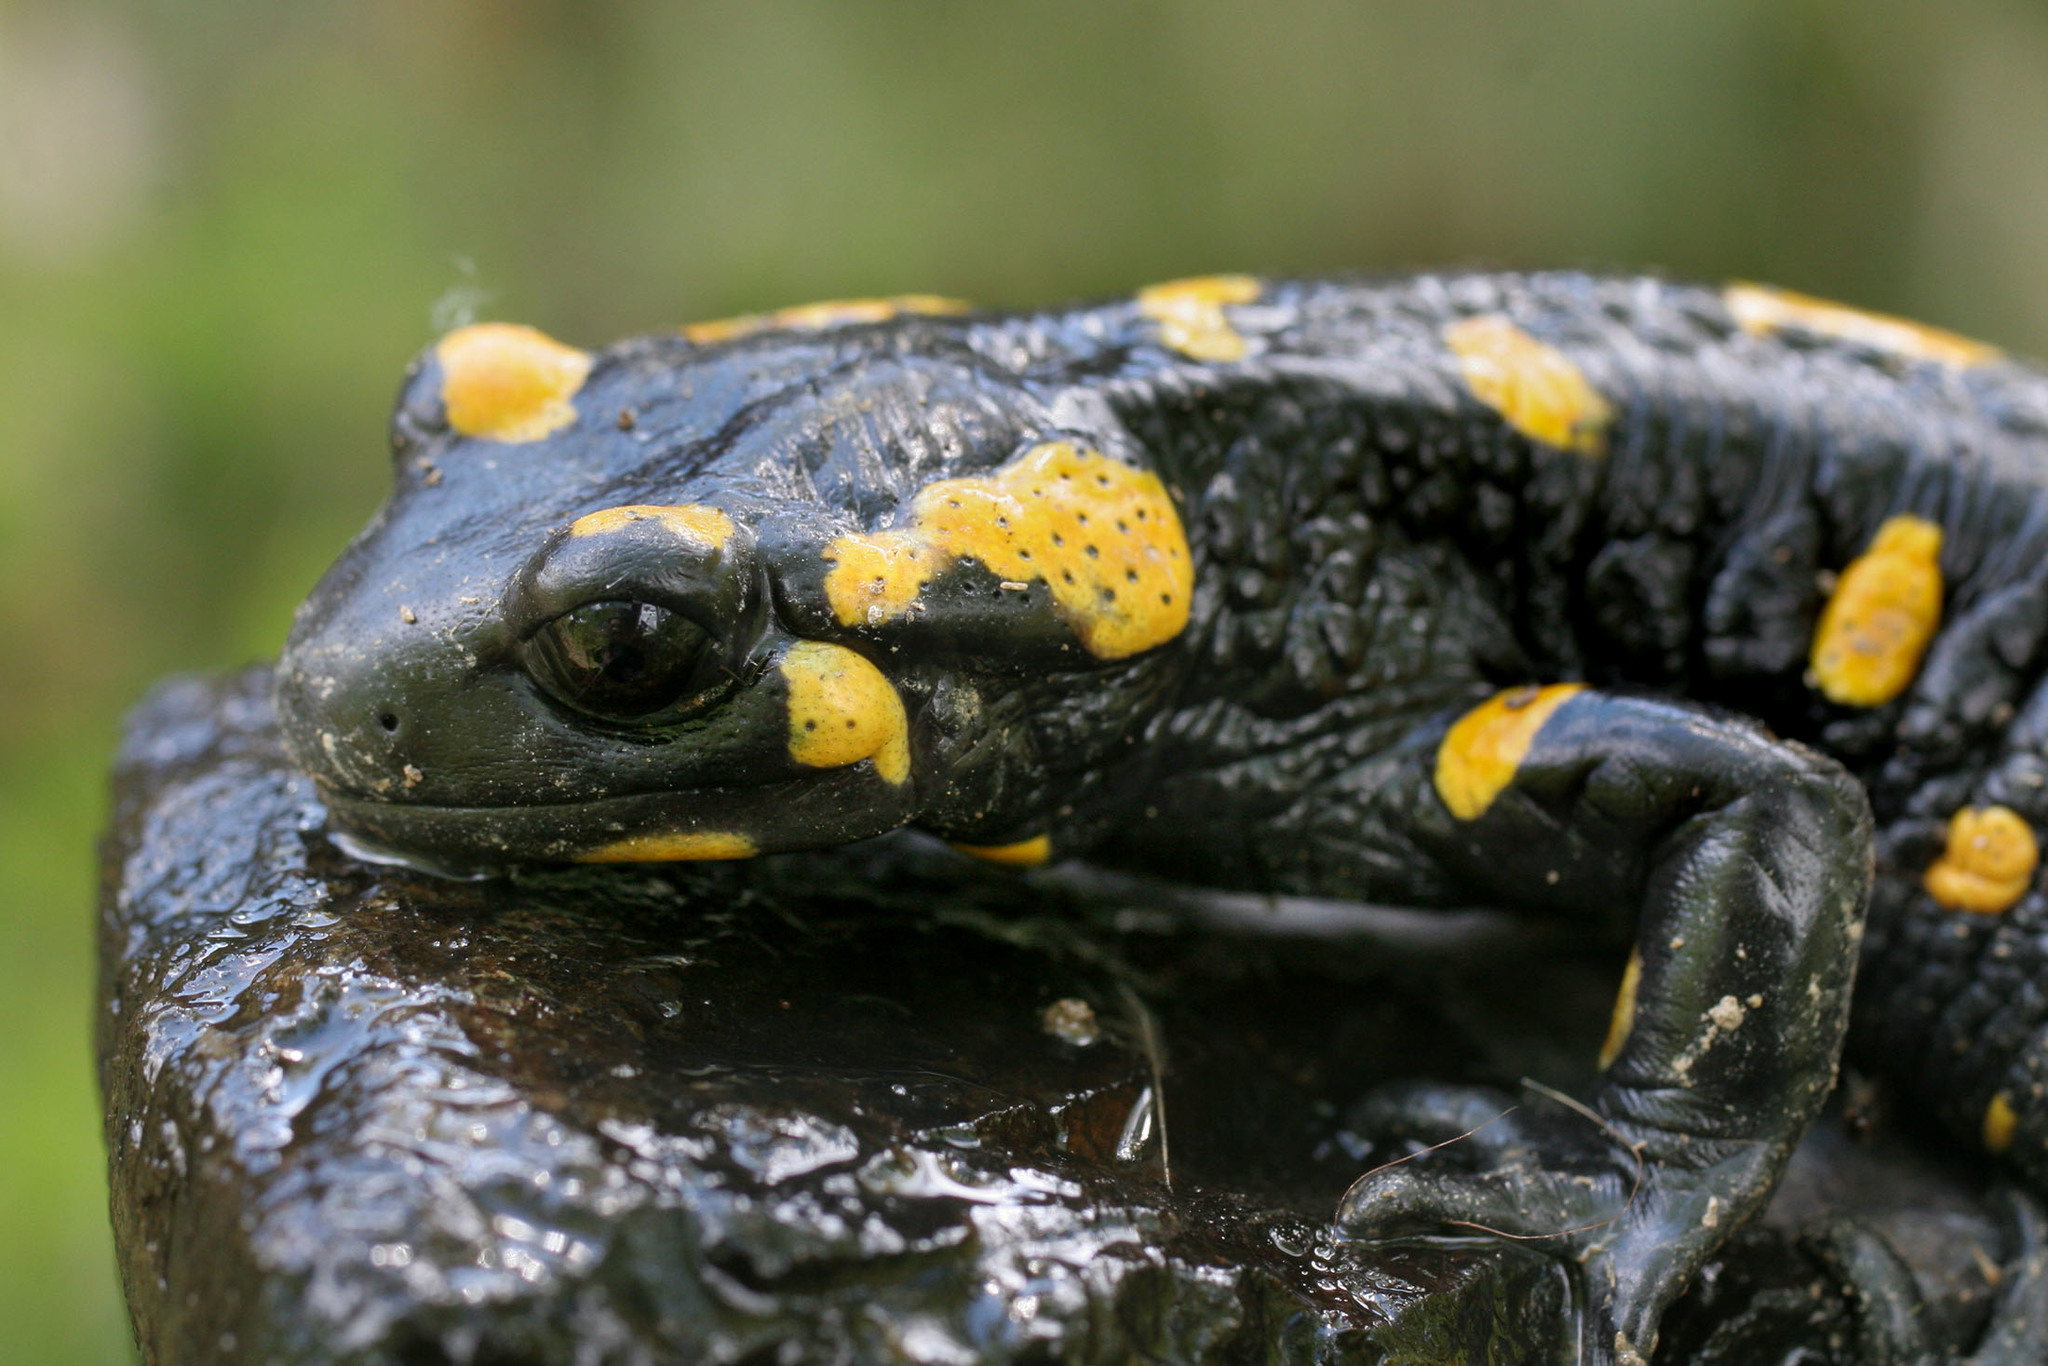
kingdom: Animalia
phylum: Chordata
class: Amphibia
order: Caudata
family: Salamandridae
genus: Salamandra
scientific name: Salamandra salamandra
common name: Fire salamander
